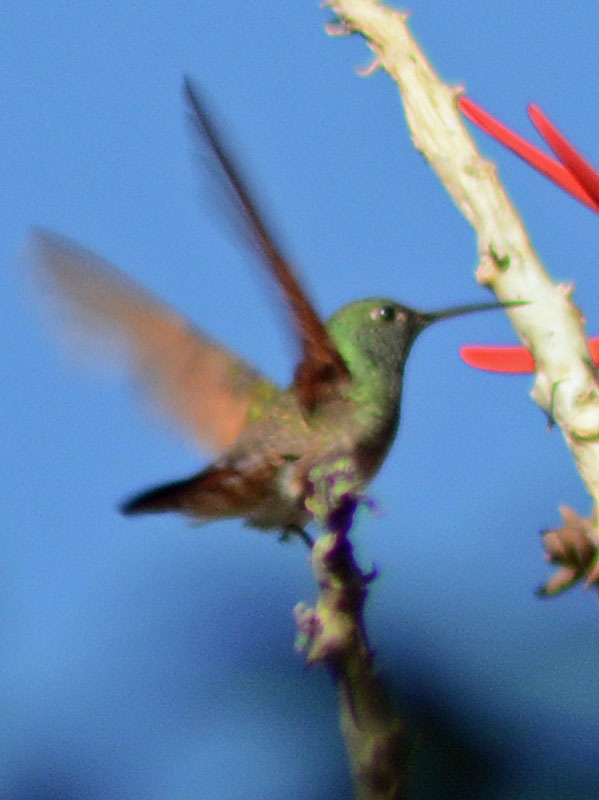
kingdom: Animalia
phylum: Chordata
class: Aves
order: Apodiformes
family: Trochilidae
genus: Saucerottia
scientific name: Saucerottia beryllina
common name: Berylline hummingbird
